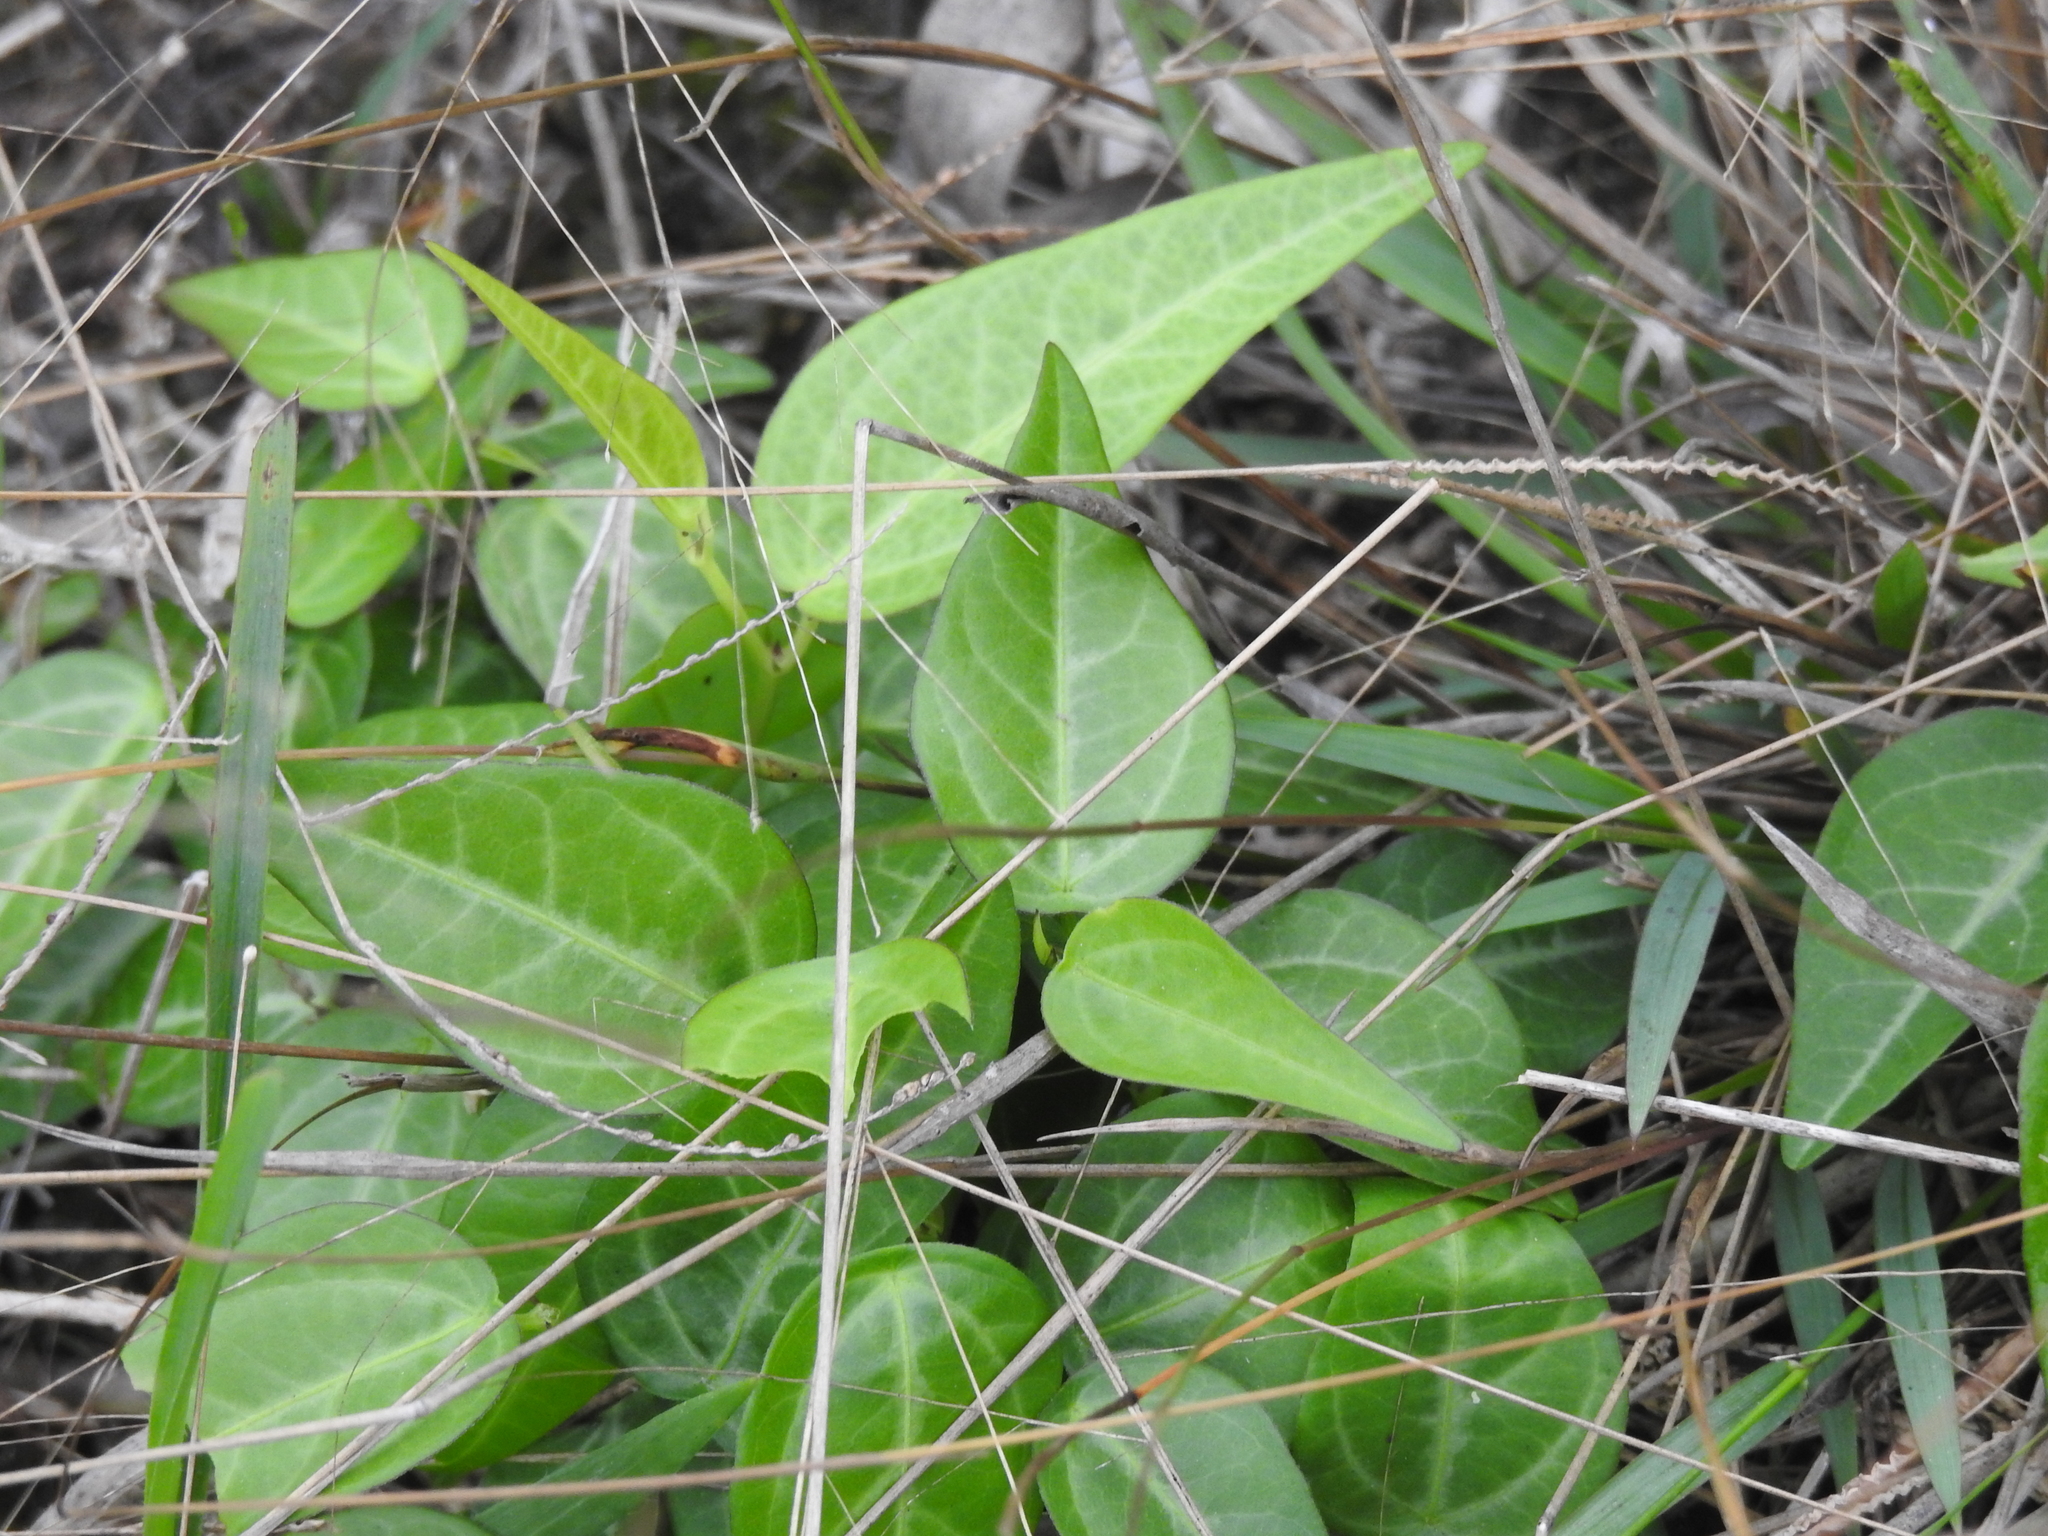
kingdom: Plantae
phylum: Tracheophyta
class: Magnoliopsida
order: Malpighiales
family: Passifloraceae
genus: Passiflora
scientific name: Passiflora pallida
